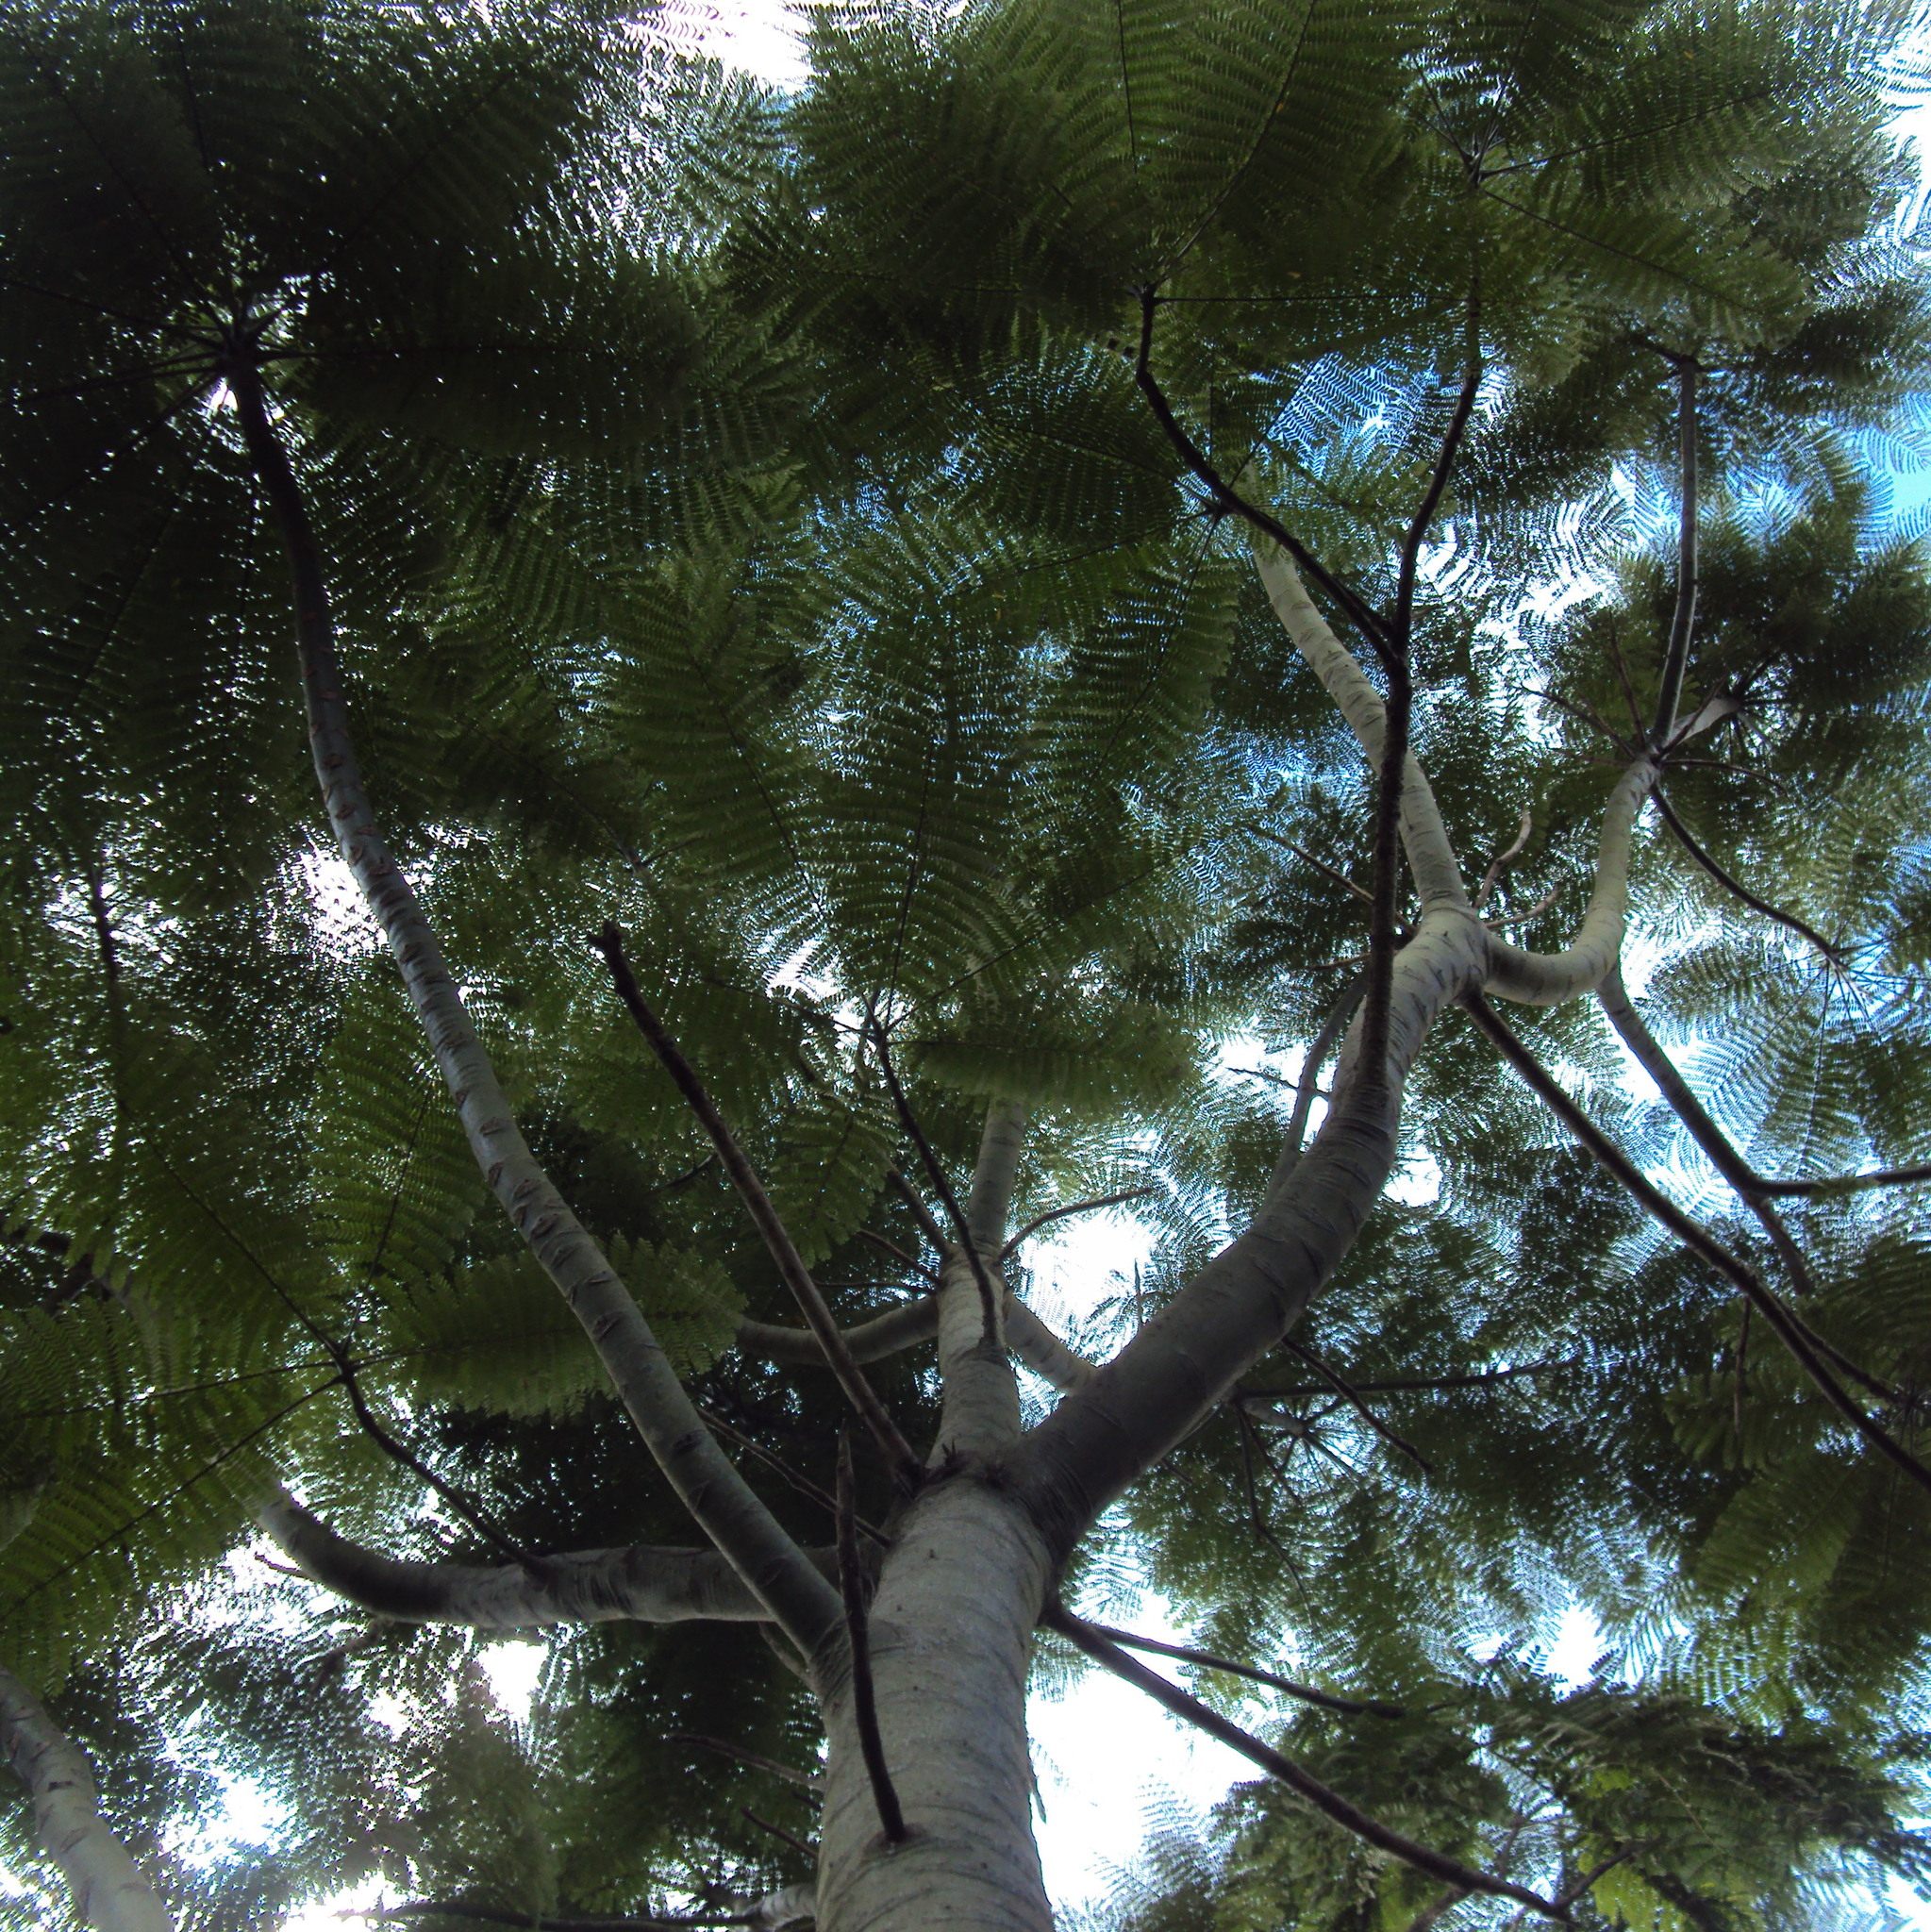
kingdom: Plantae
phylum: Tracheophyta
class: Magnoliopsida
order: Fabales
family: Fabaceae
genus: Schizolobium
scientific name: Schizolobium parahyba
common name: Brazilian firetree
